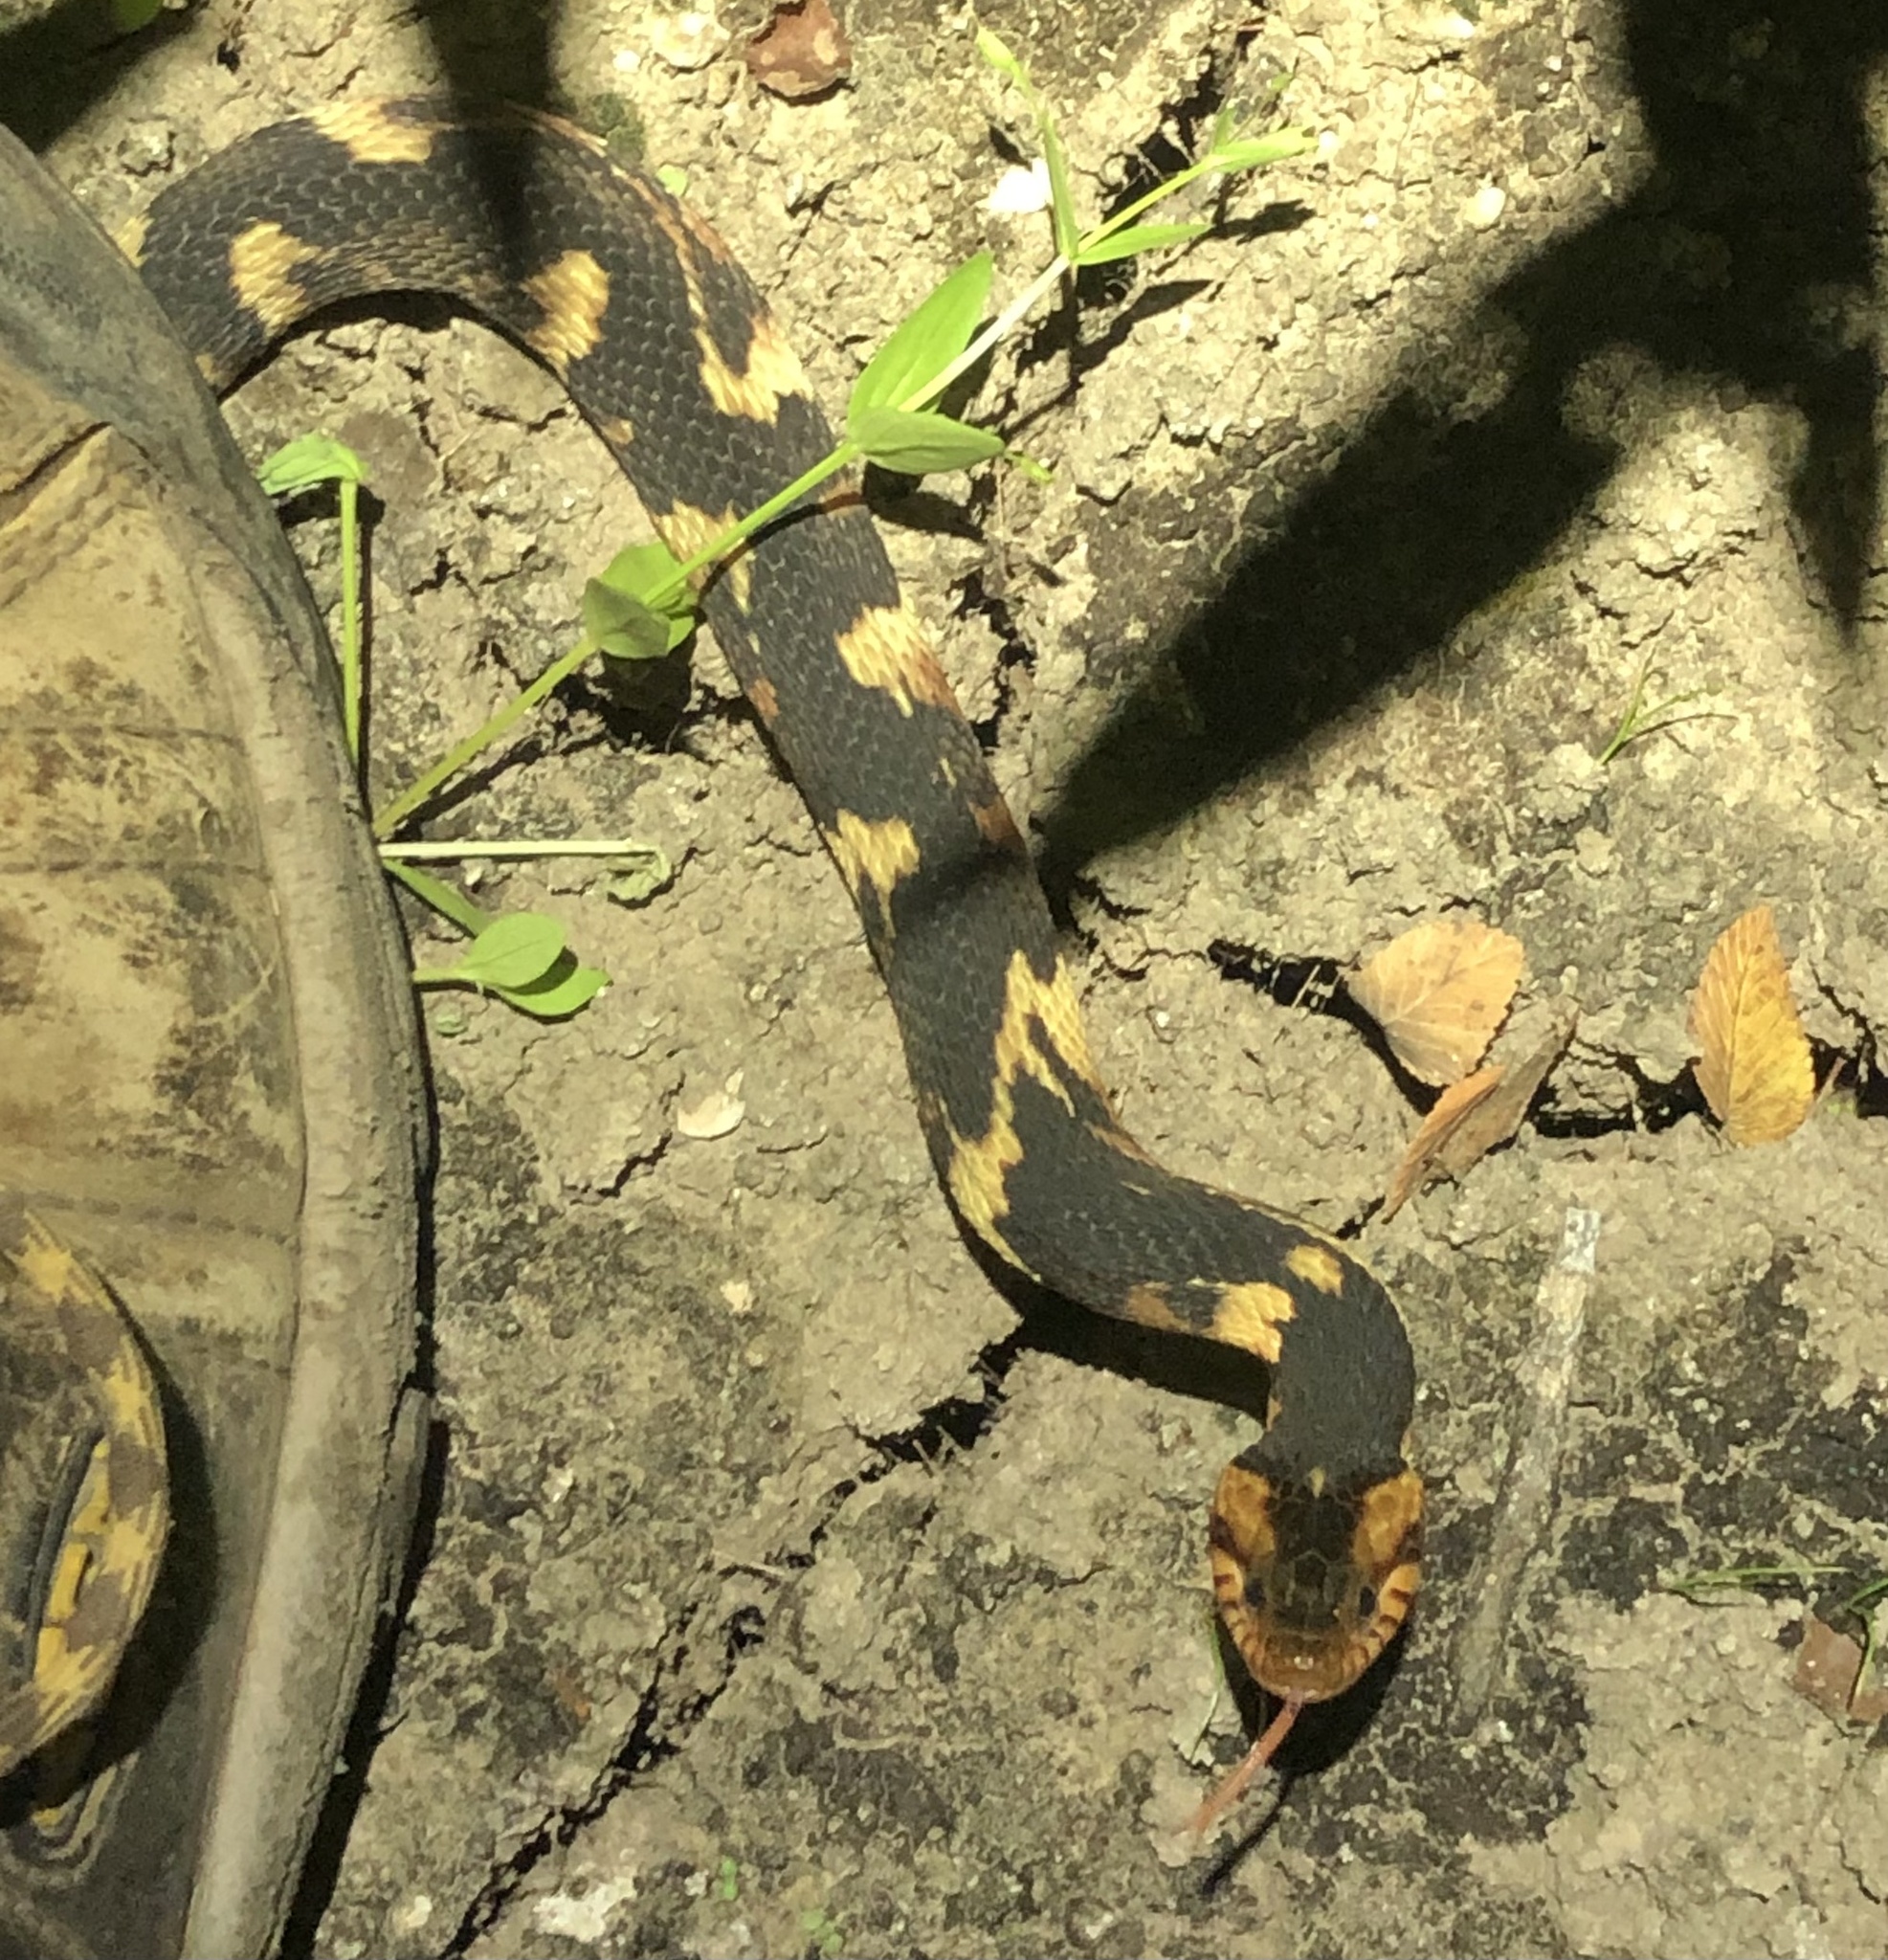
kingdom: Animalia
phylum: Chordata
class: Squamata
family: Colubridae
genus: Nerodia
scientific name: Nerodia fasciata
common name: Southern water snake
